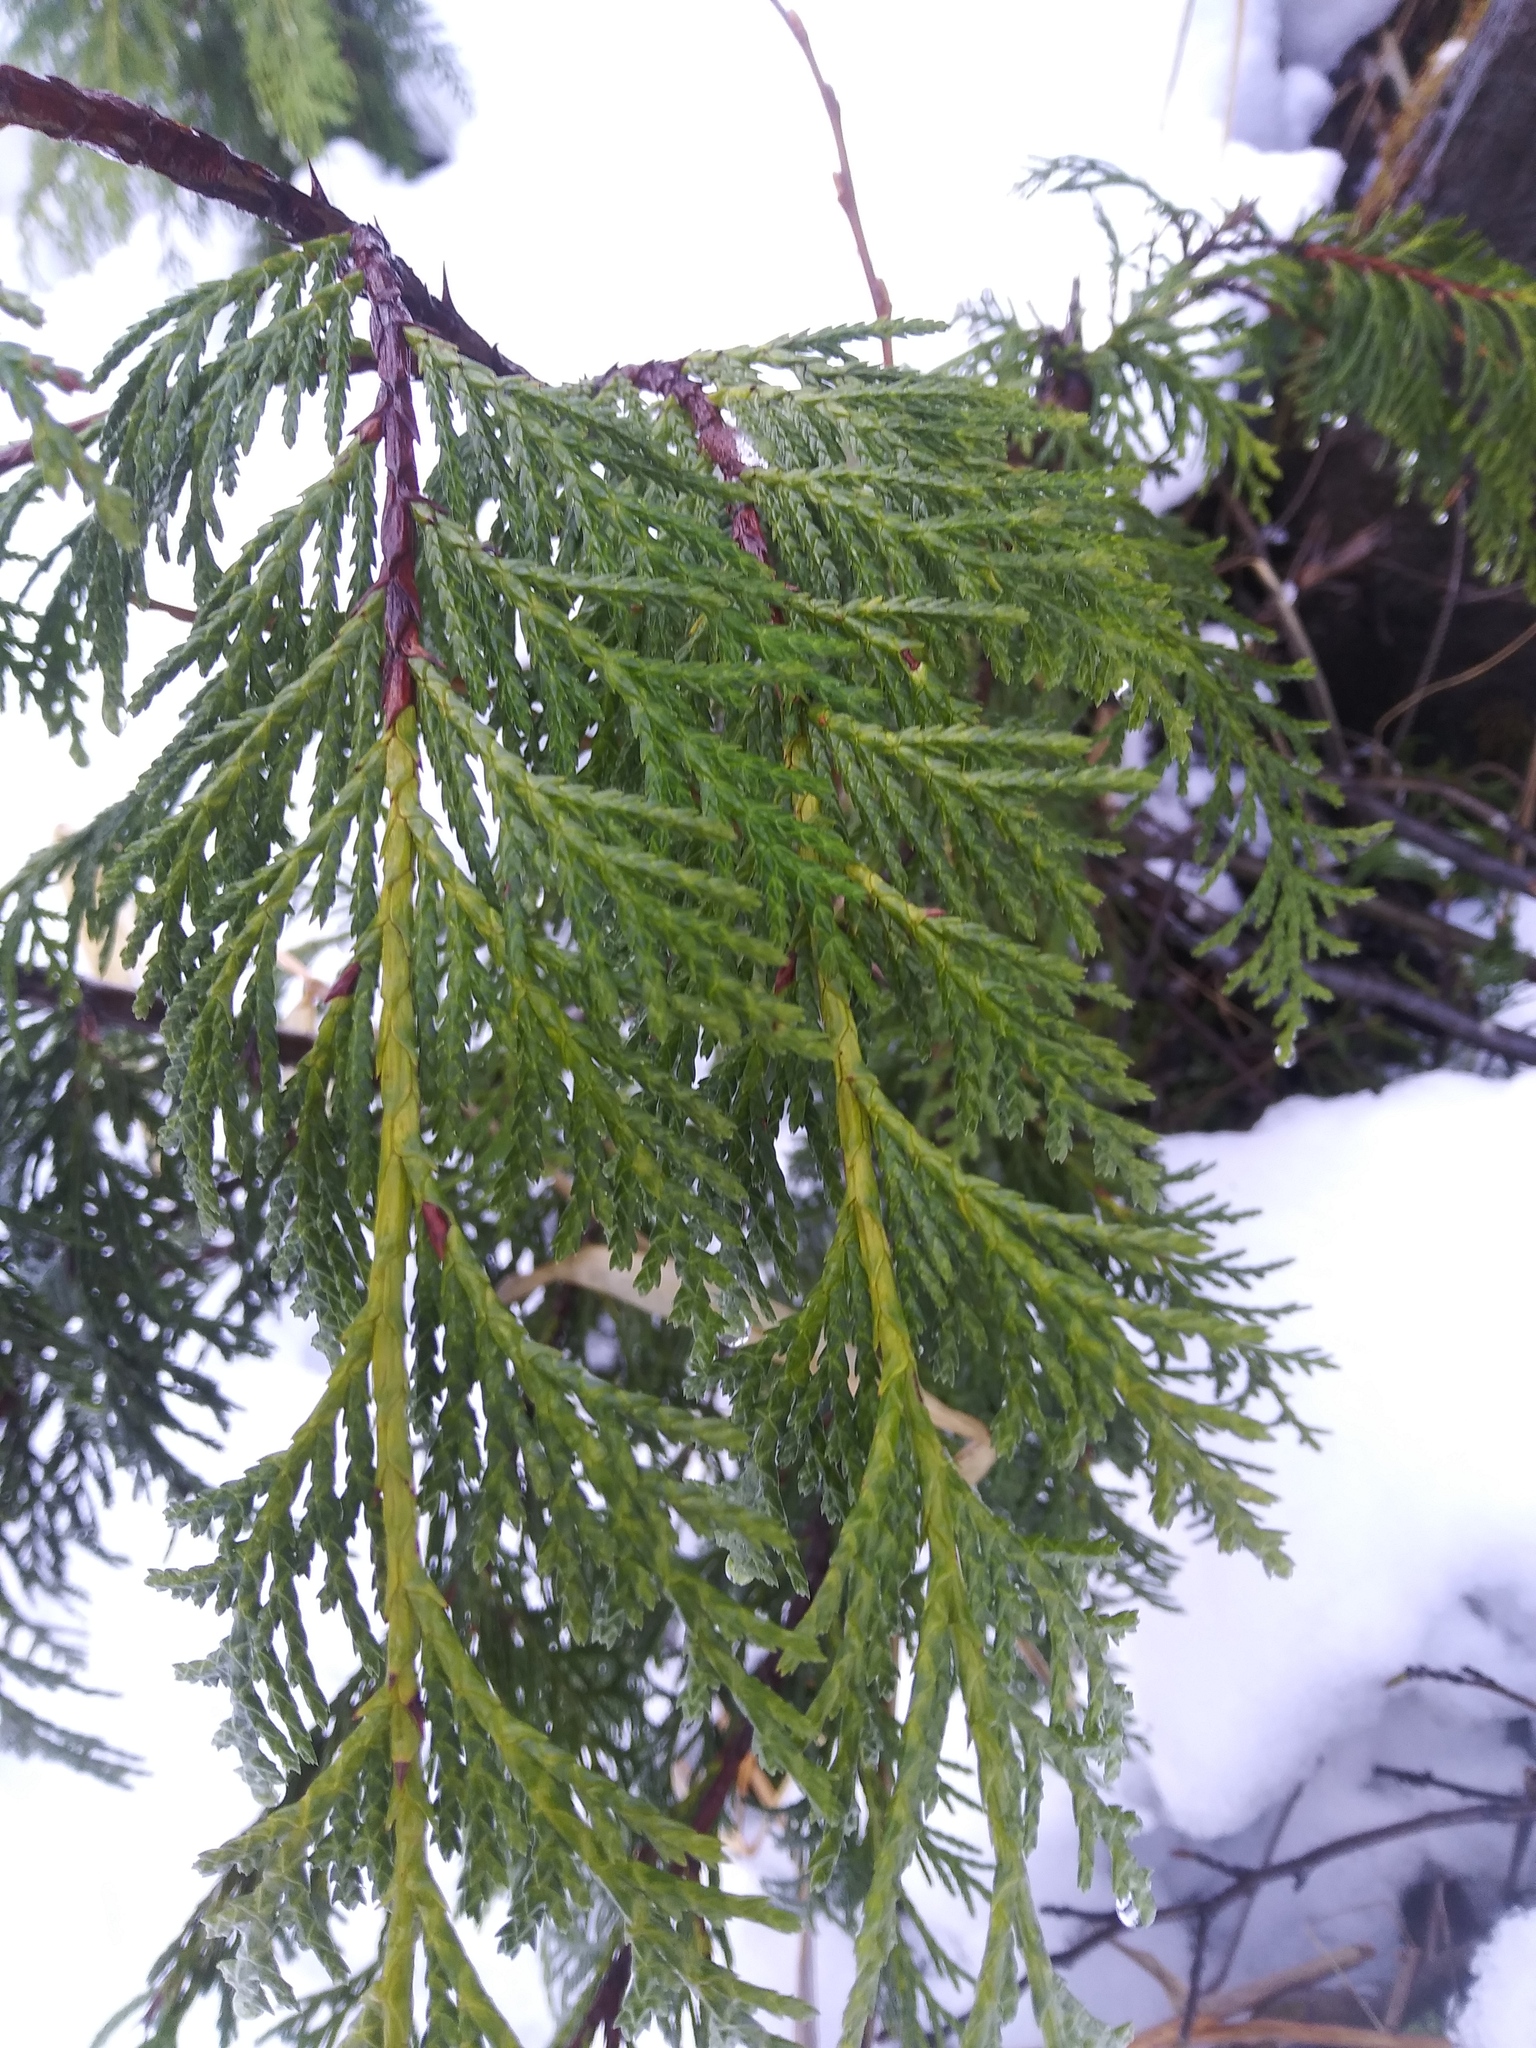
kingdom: Plantae
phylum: Tracheophyta
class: Pinopsida
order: Pinales
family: Cupressaceae
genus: Xanthocyparis
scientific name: Xanthocyparis nootkatensis
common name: Nootka cypress
